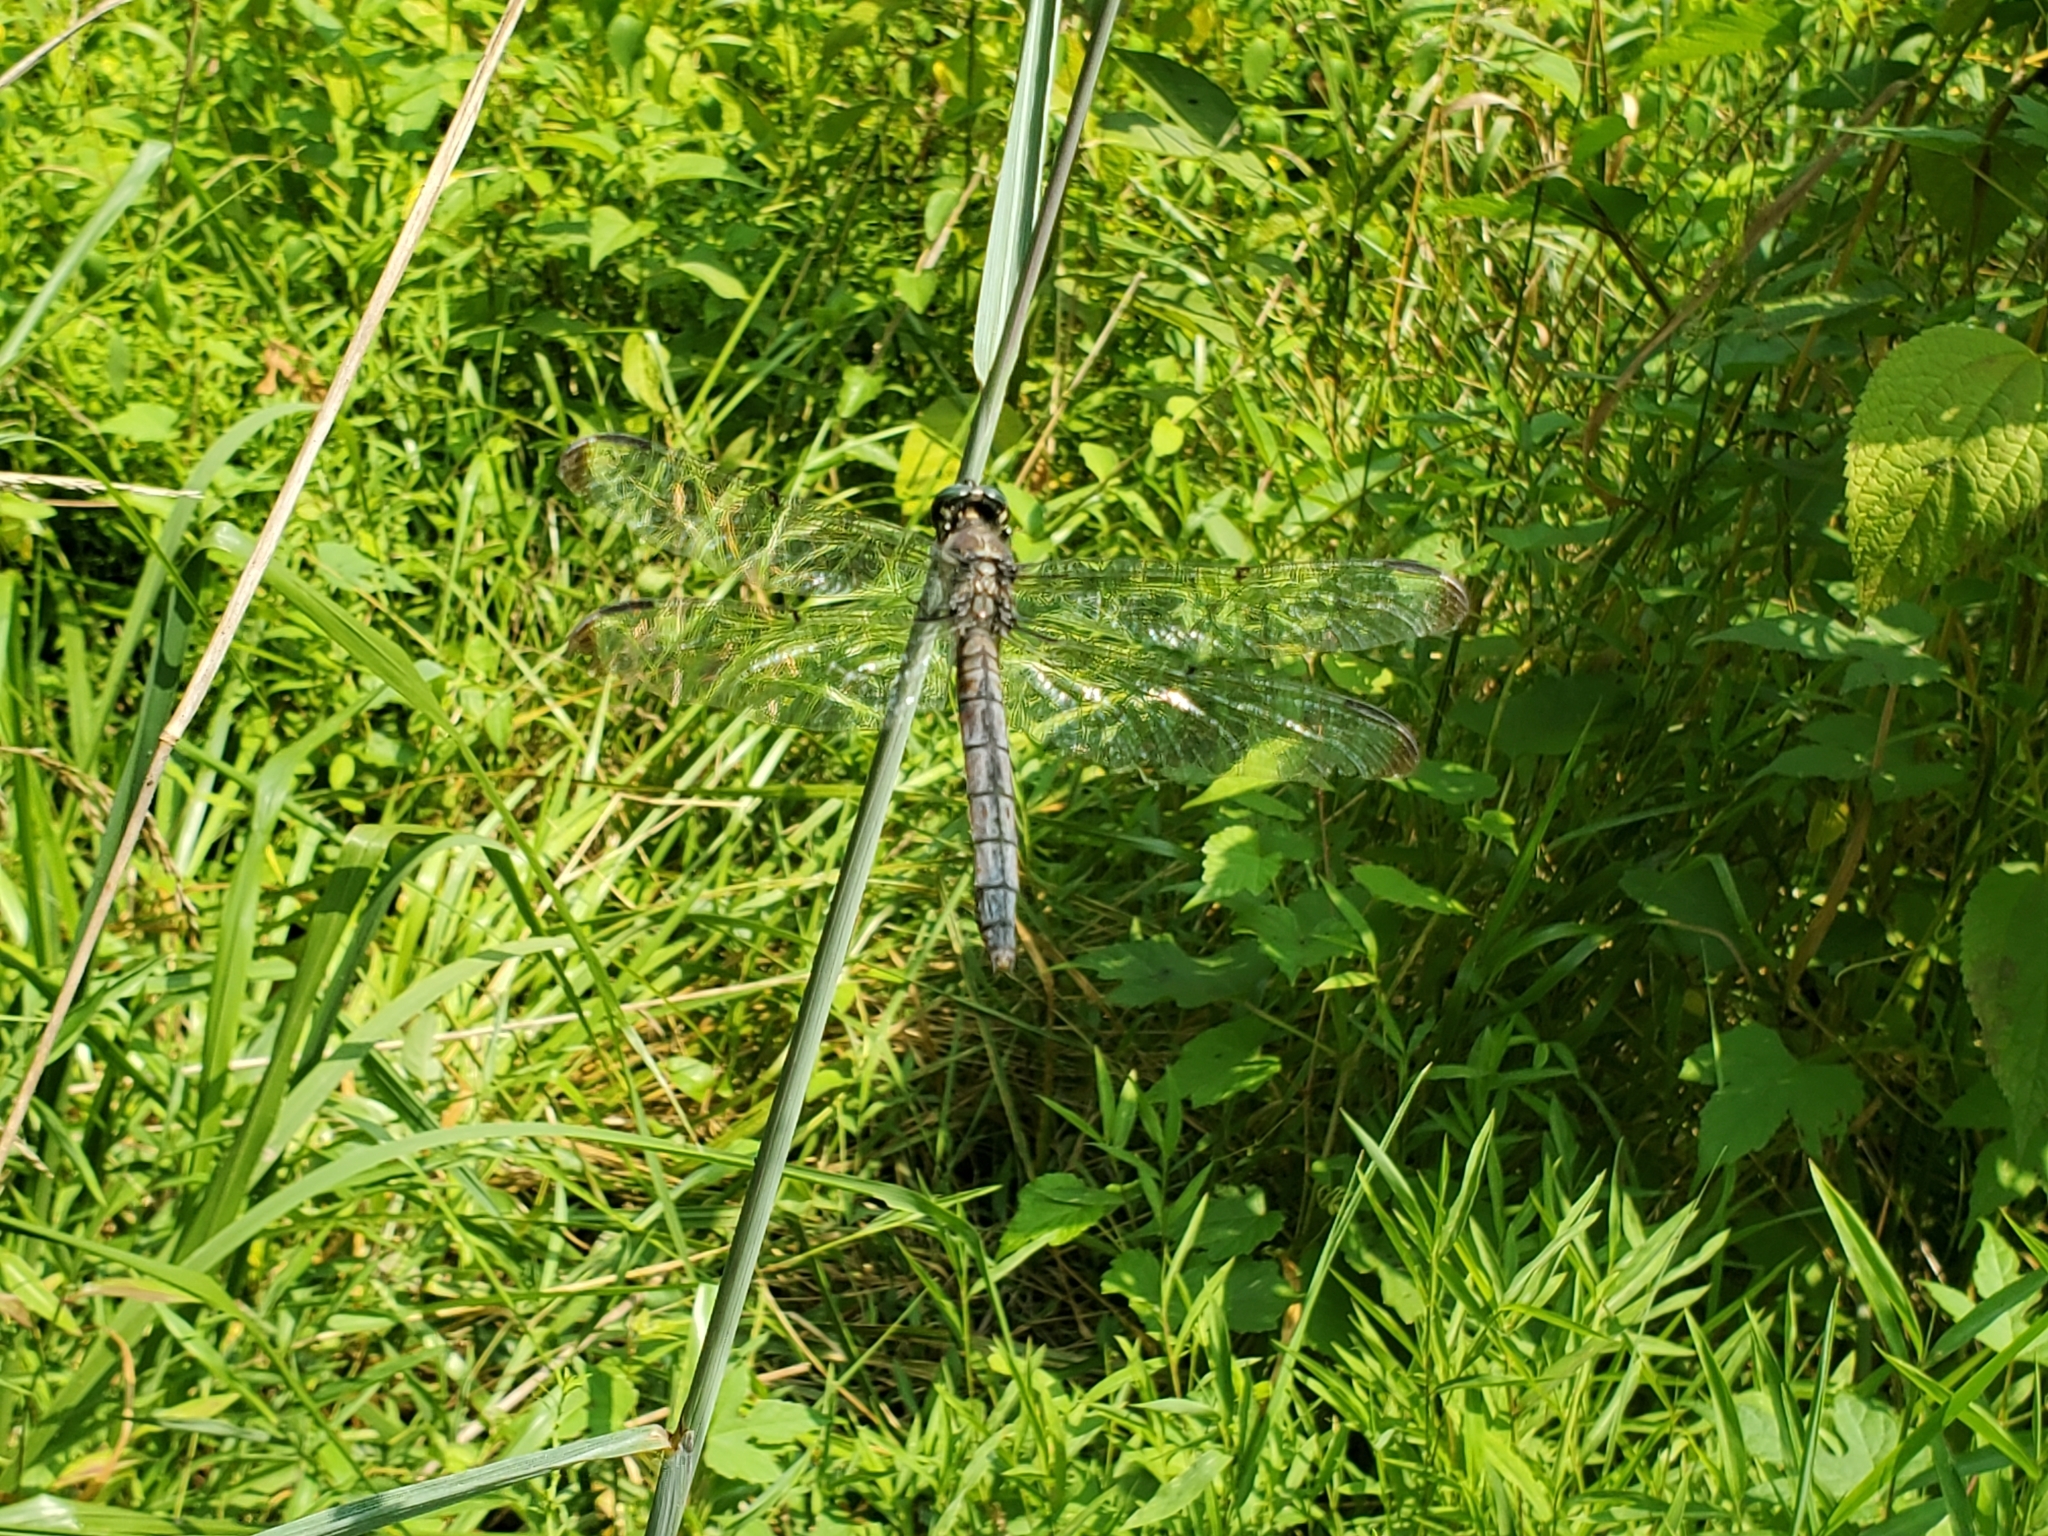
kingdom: Animalia
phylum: Arthropoda
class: Insecta
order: Odonata
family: Libellulidae
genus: Libellula
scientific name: Libellula vibrans
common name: Great blue skimmer
